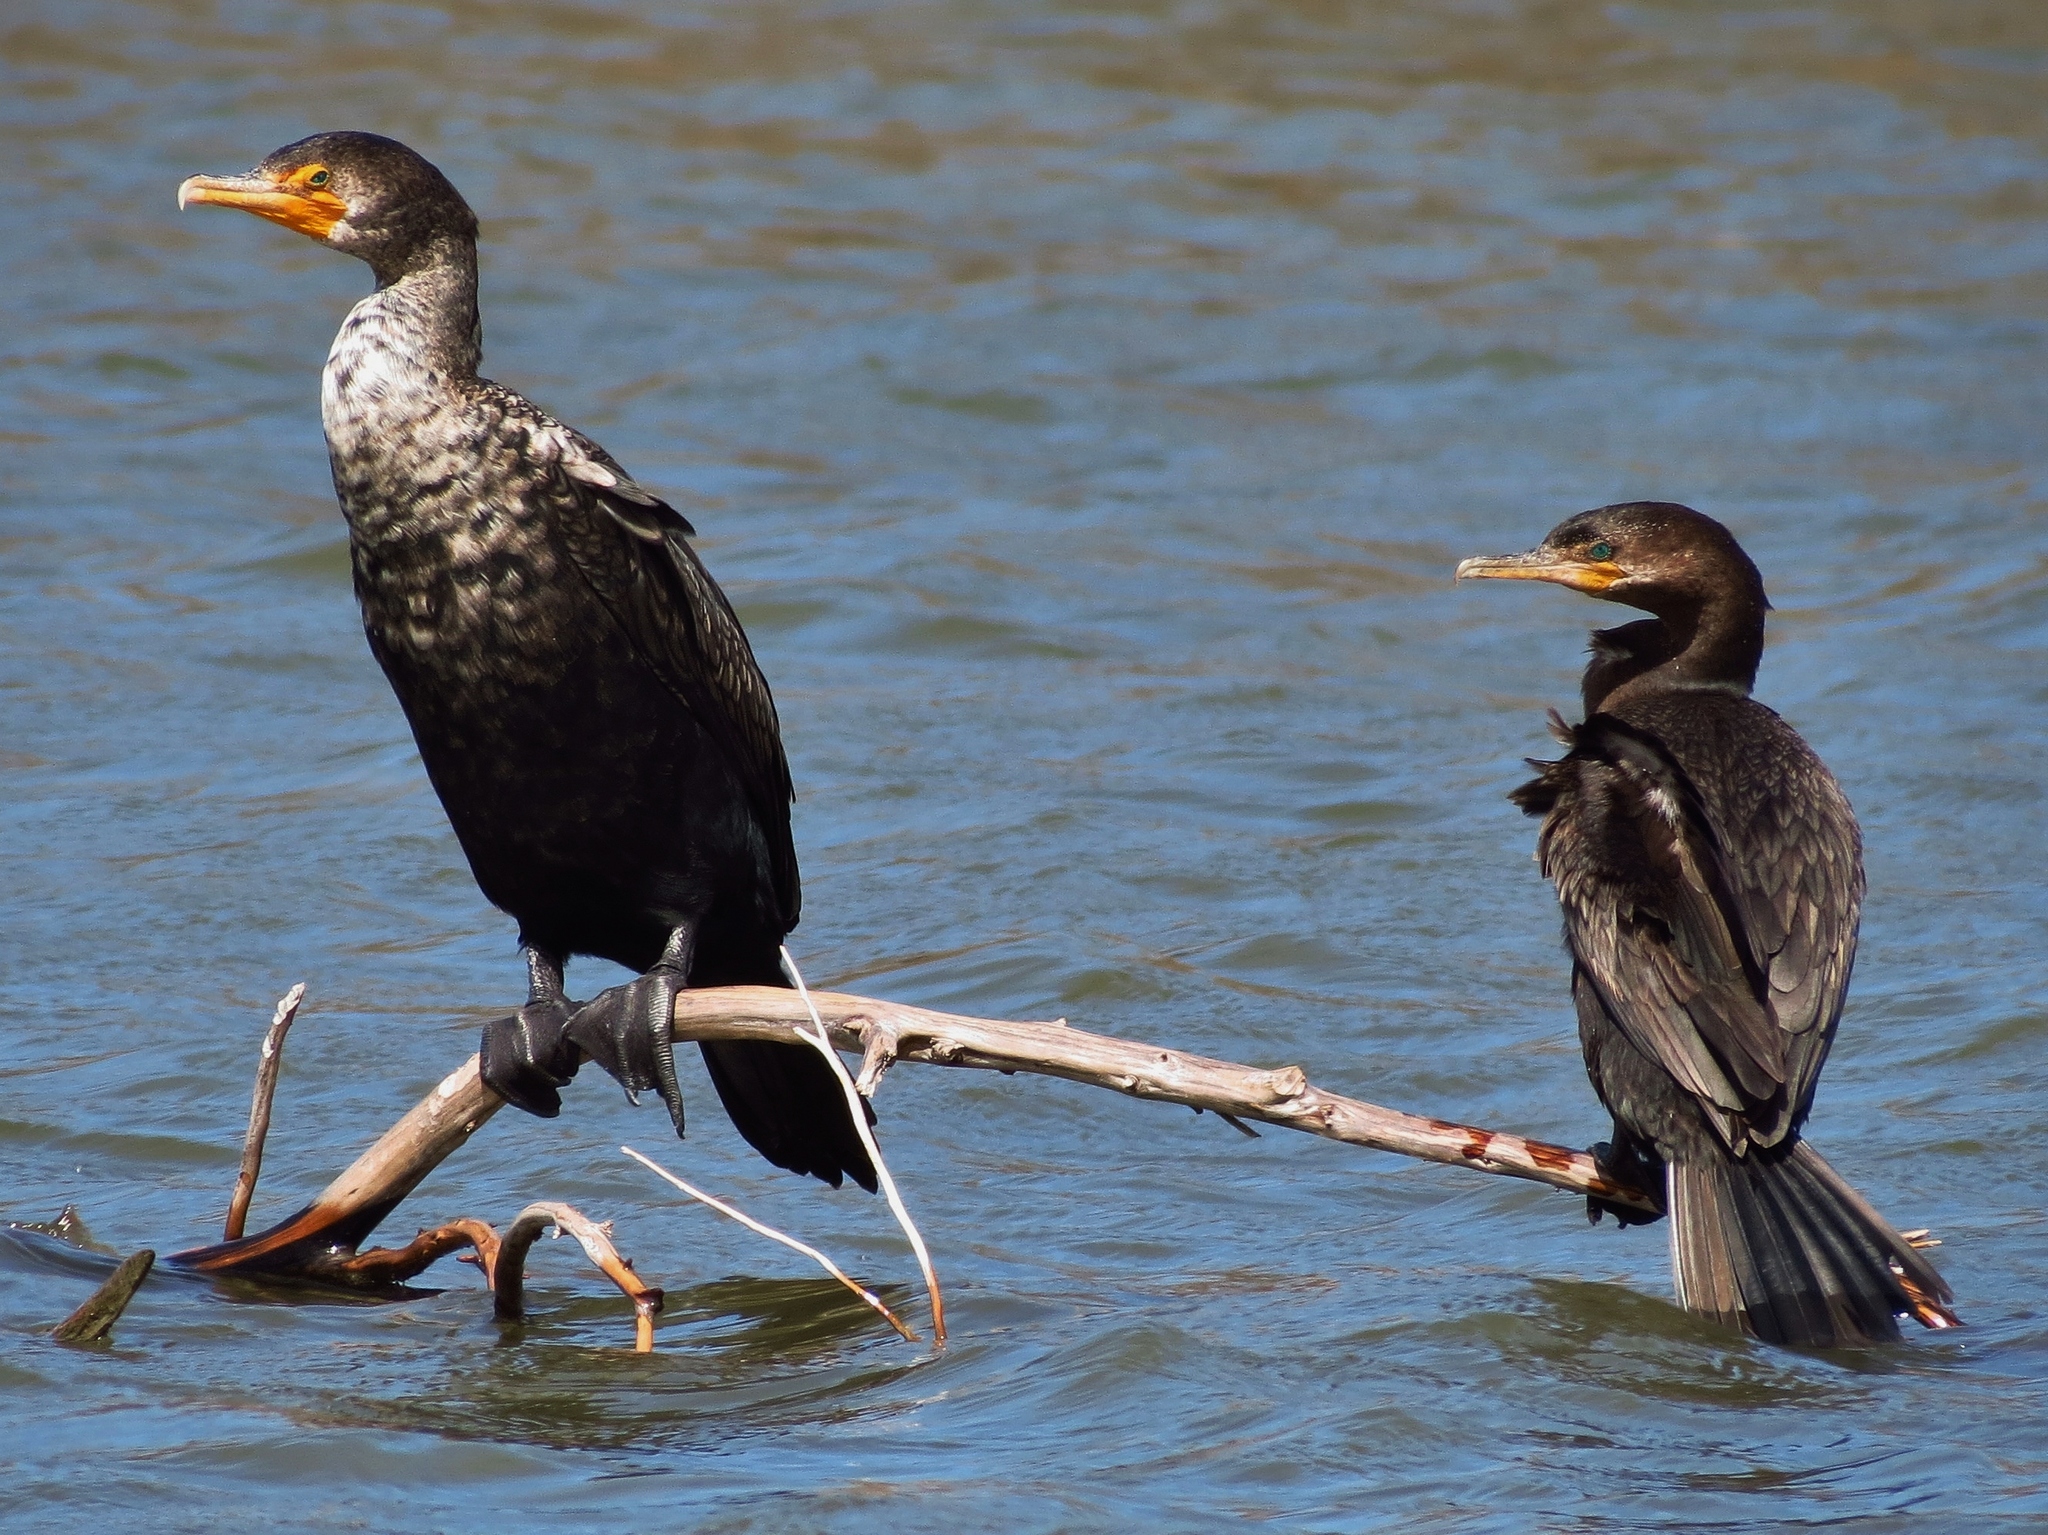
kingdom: Animalia
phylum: Chordata
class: Aves
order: Suliformes
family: Phalacrocoracidae
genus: Phalacrocorax
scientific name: Phalacrocorax auritus
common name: Double-crested cormorant
